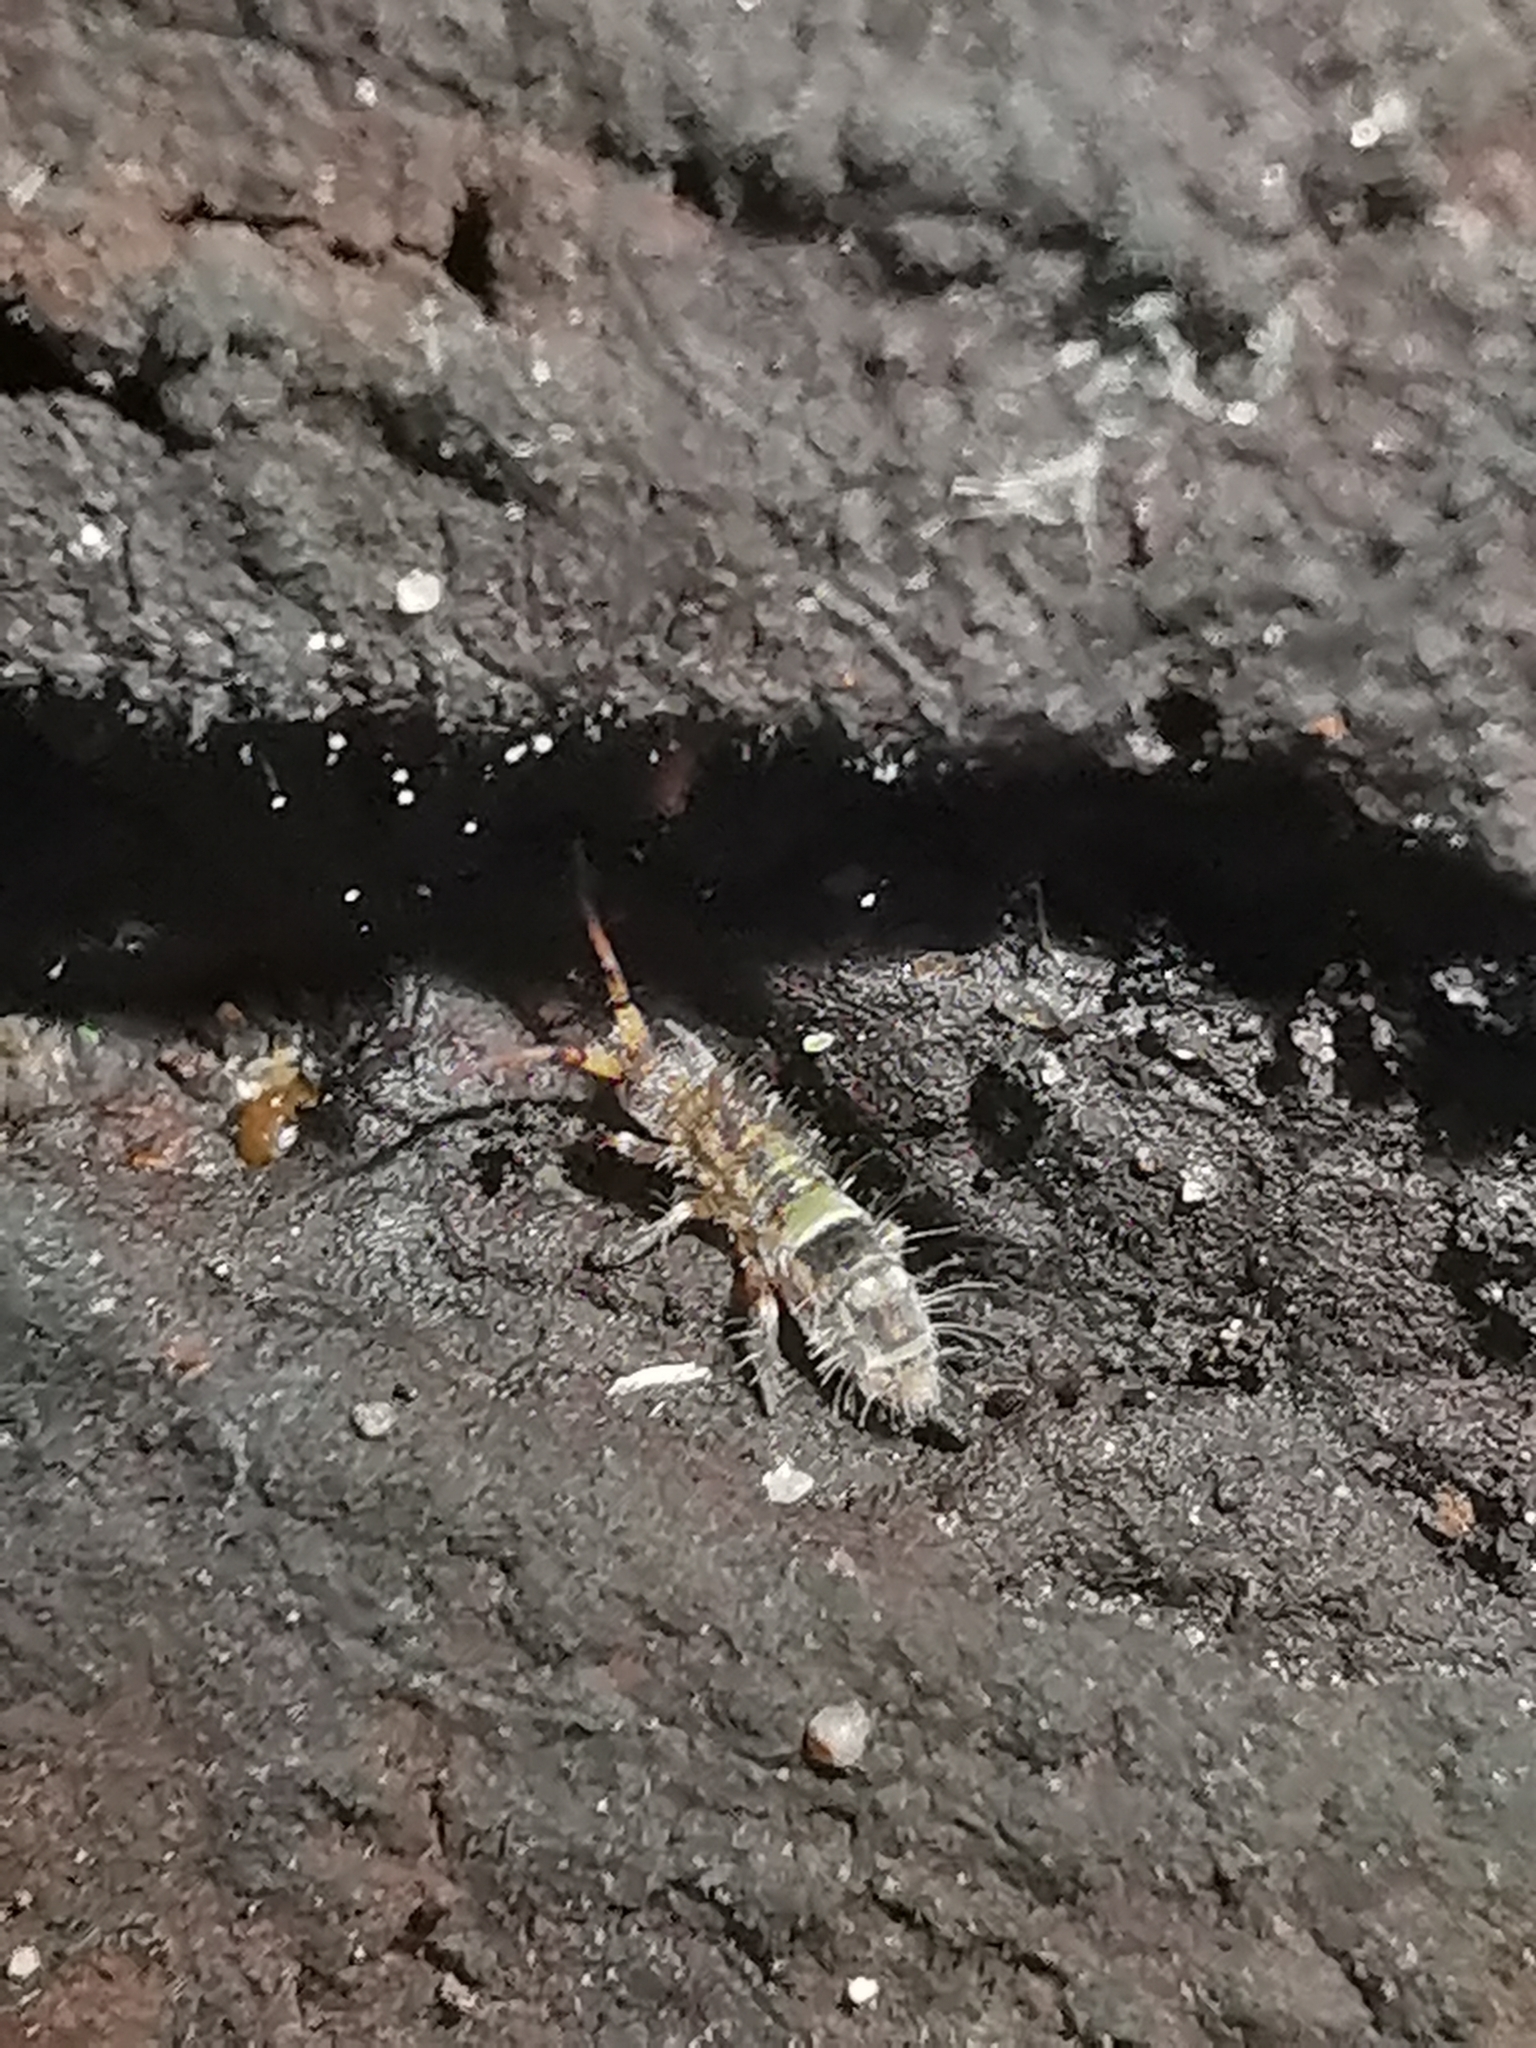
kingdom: Animalia
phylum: Arthropoda
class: Collembola
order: Entomobryomorpha
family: Orchesellidae
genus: Orchesella
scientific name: Orchesella cincta
